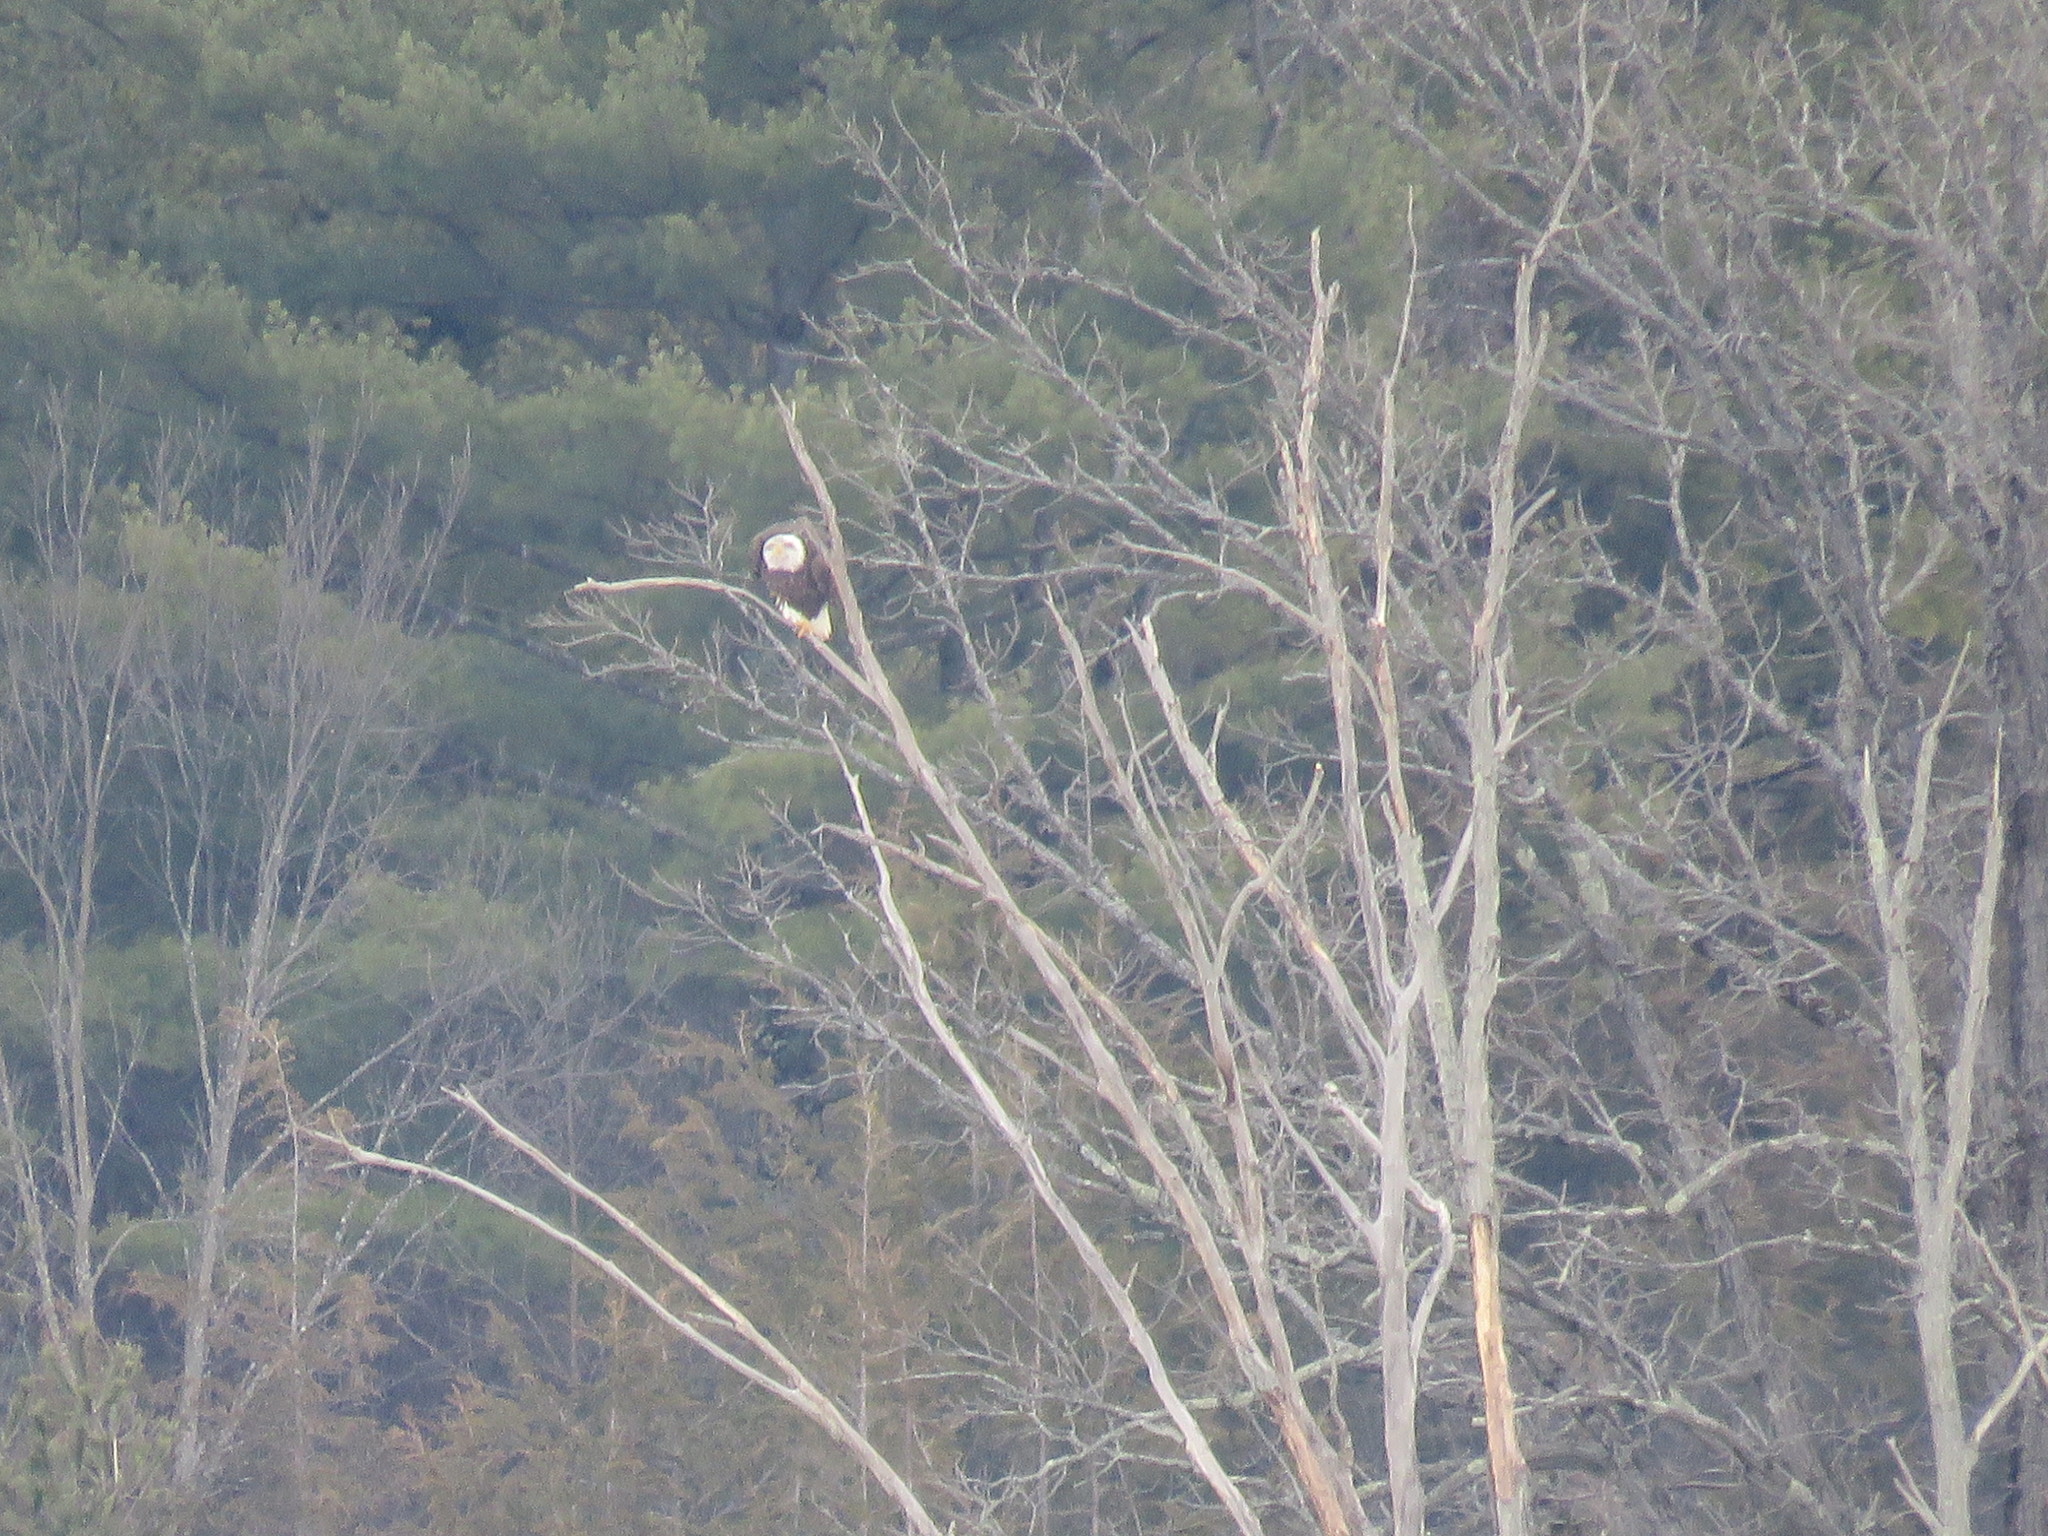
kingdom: Animalia
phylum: Chordata
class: Aves
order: Accipitriformes
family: Accipitridae
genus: Haliaeetus
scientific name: Haliaeetus leucocephalus
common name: Bald eagle
